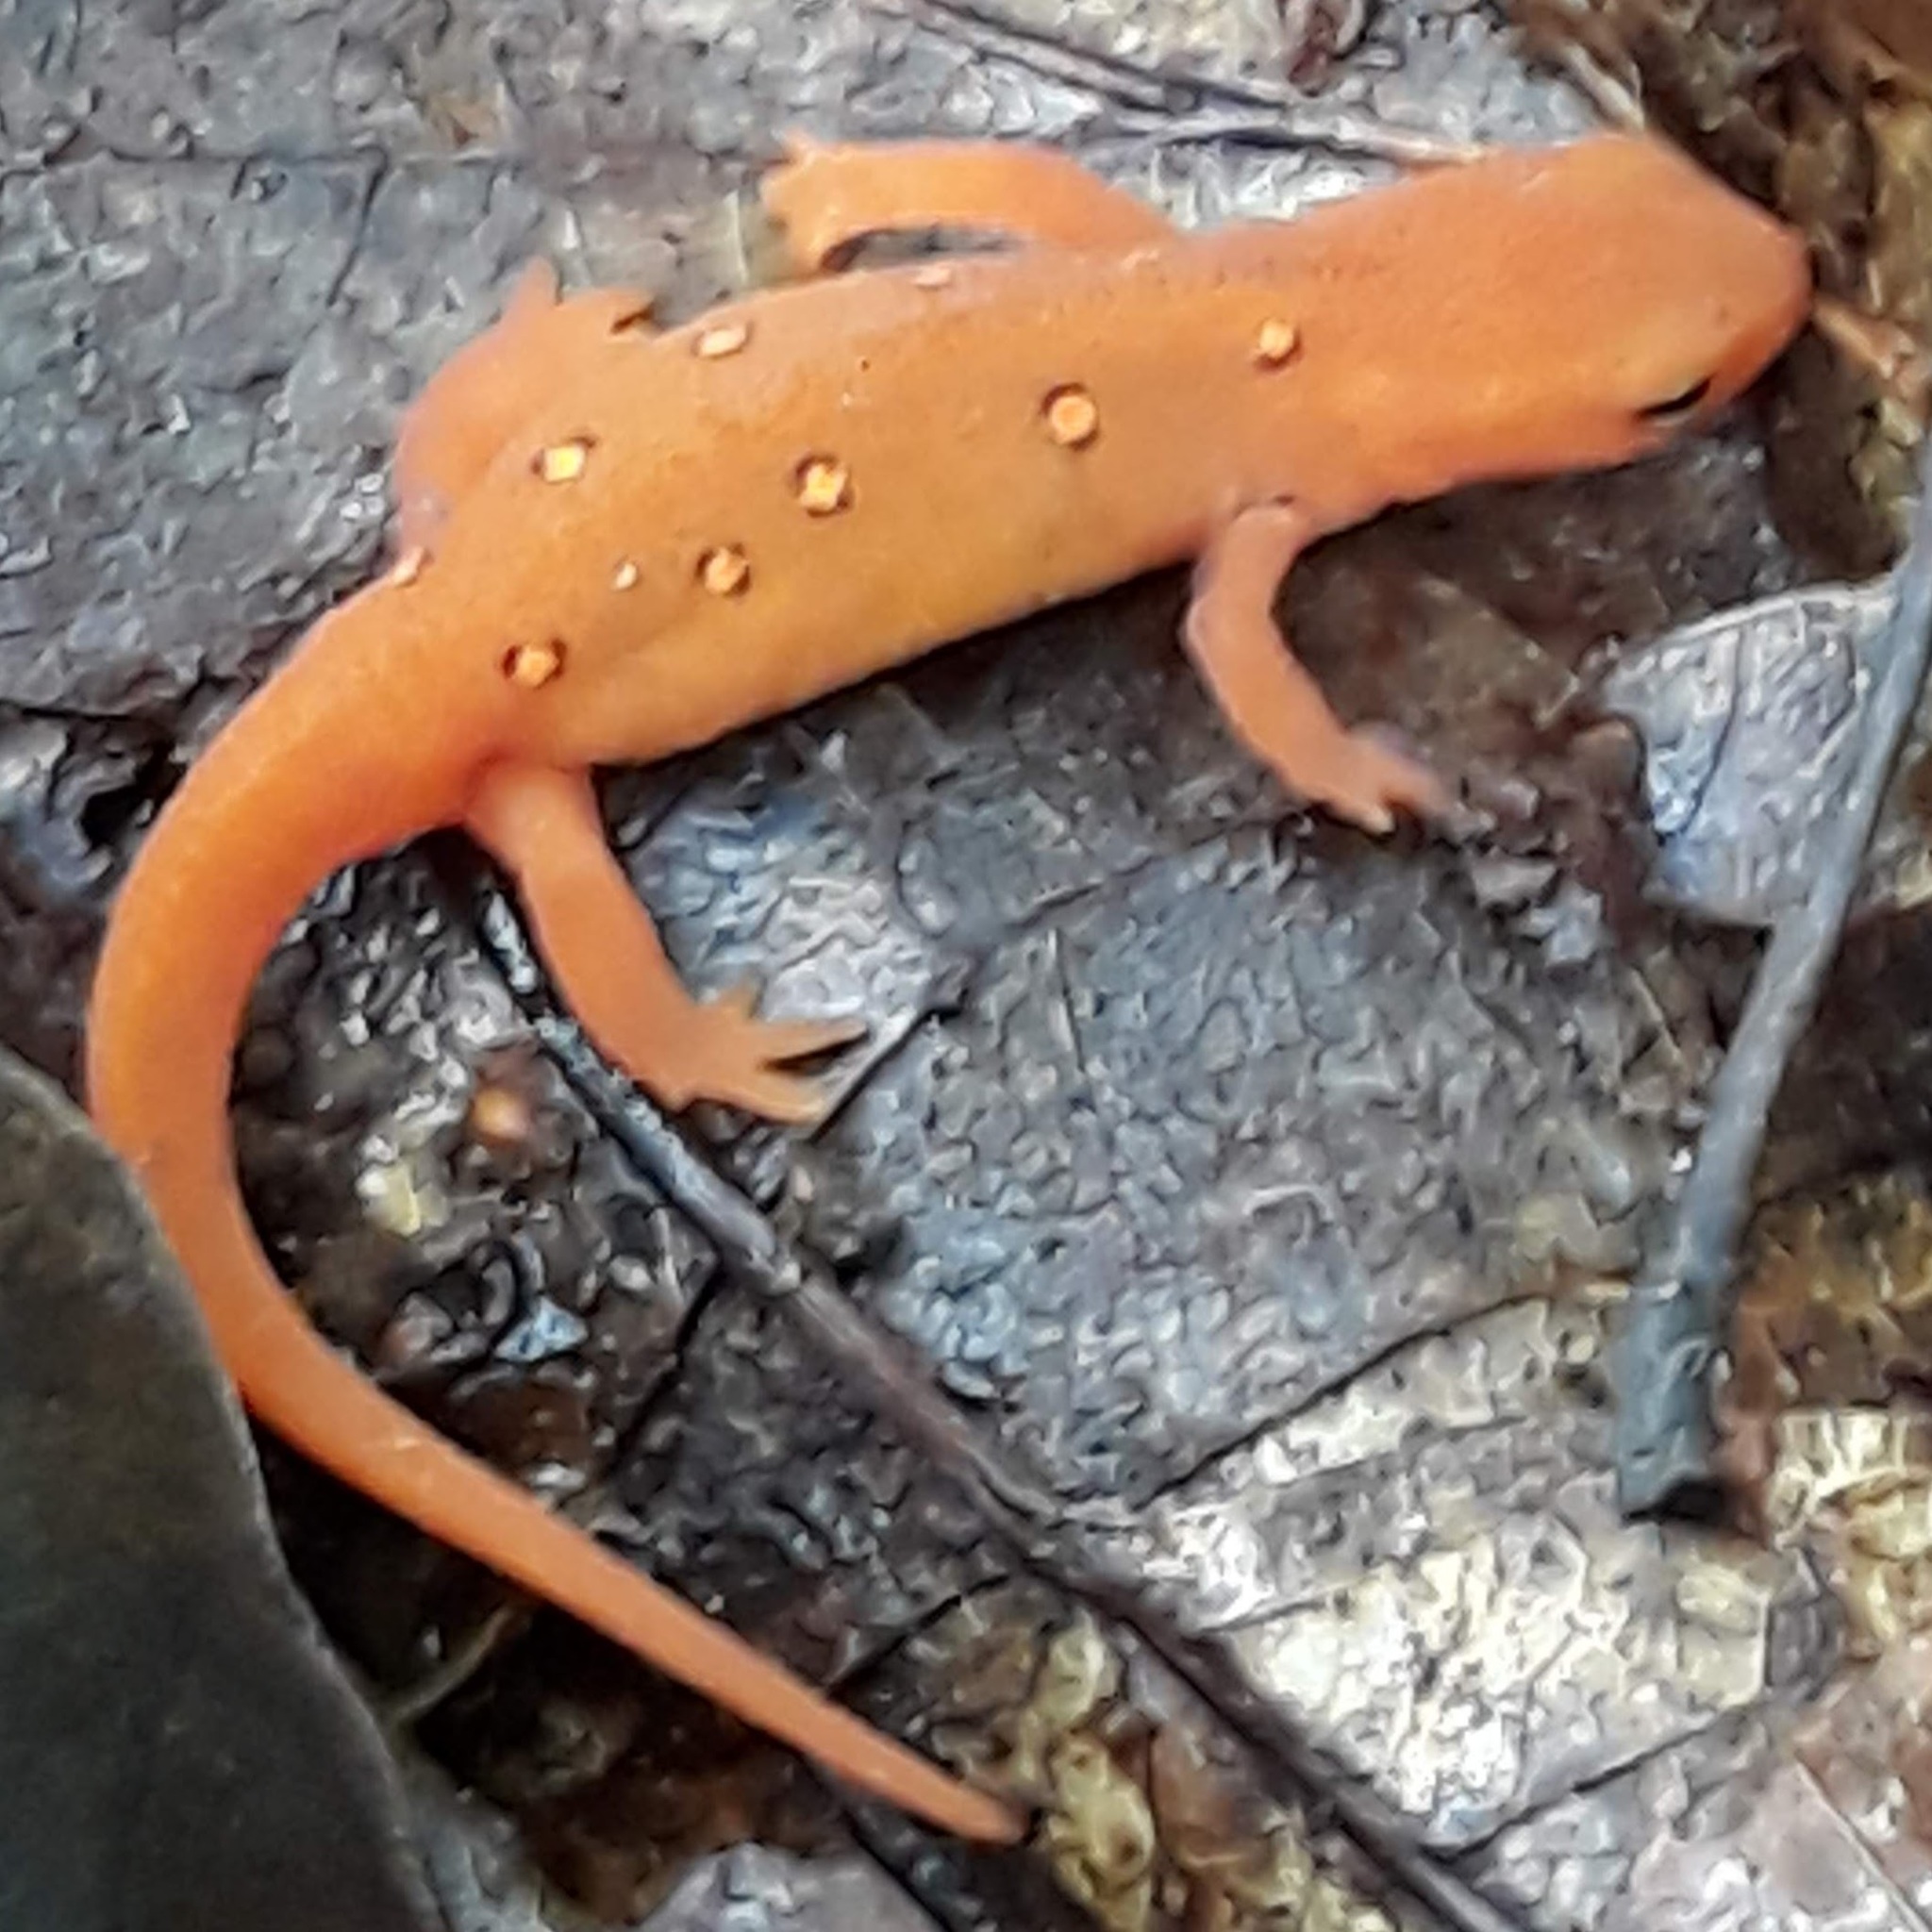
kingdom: Animalia
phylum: Chordata
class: Amphibia
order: Caudata
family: Salamandridae
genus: Notophthalmus
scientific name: Notophthalmus viridescens
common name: Eastern newt
